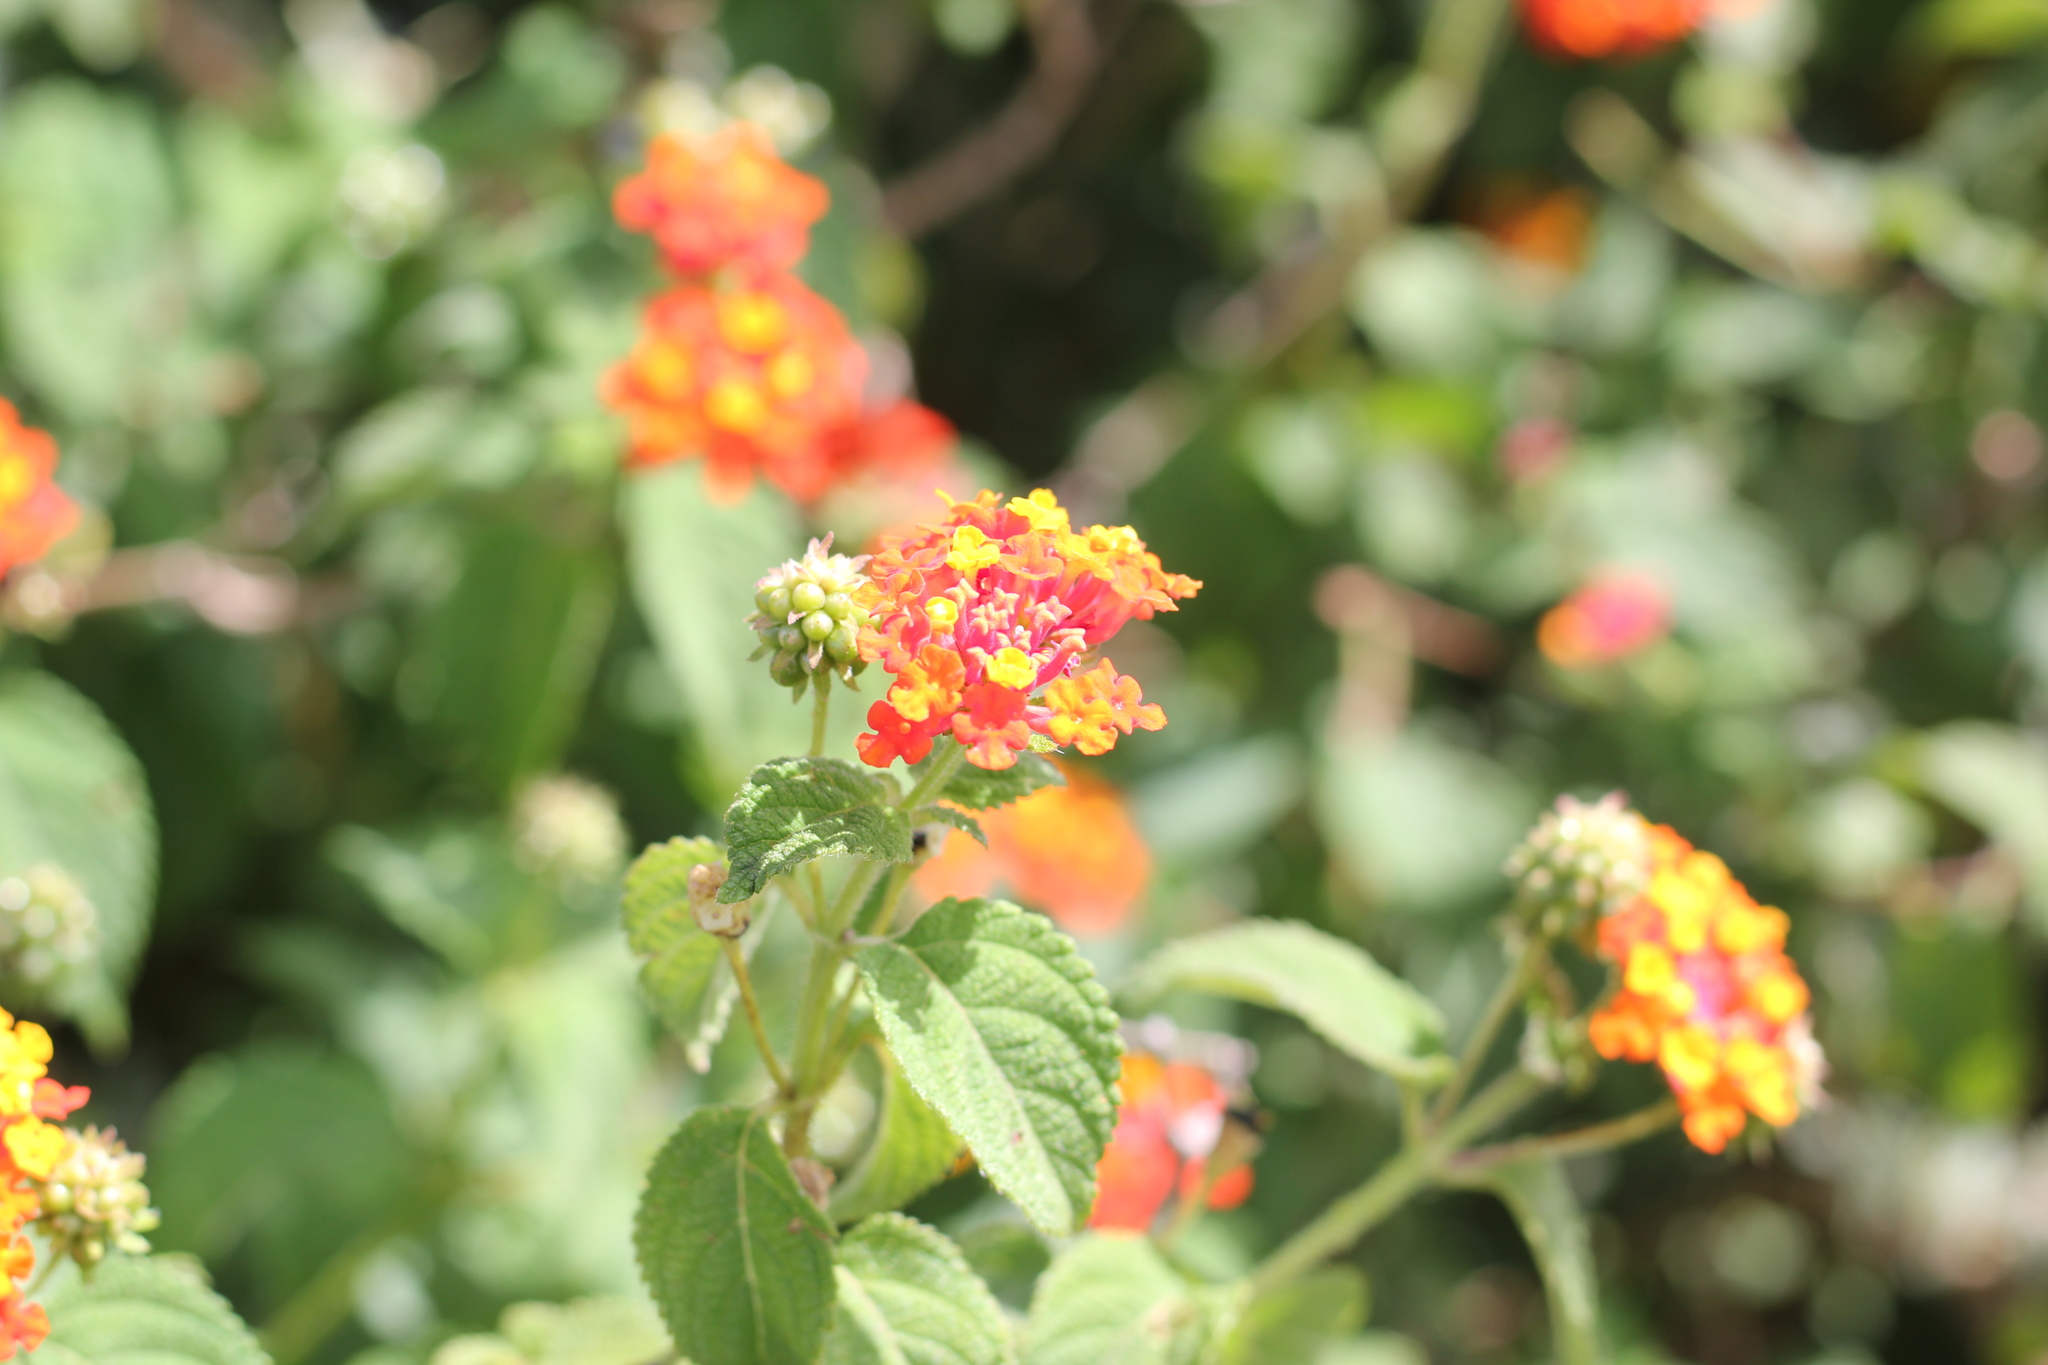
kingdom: Plantae
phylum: Tracheophyta
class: Magnoliopsida
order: Lamiales
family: Verbenaceae
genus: Lantana
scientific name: Lantana camara
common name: Lantana
